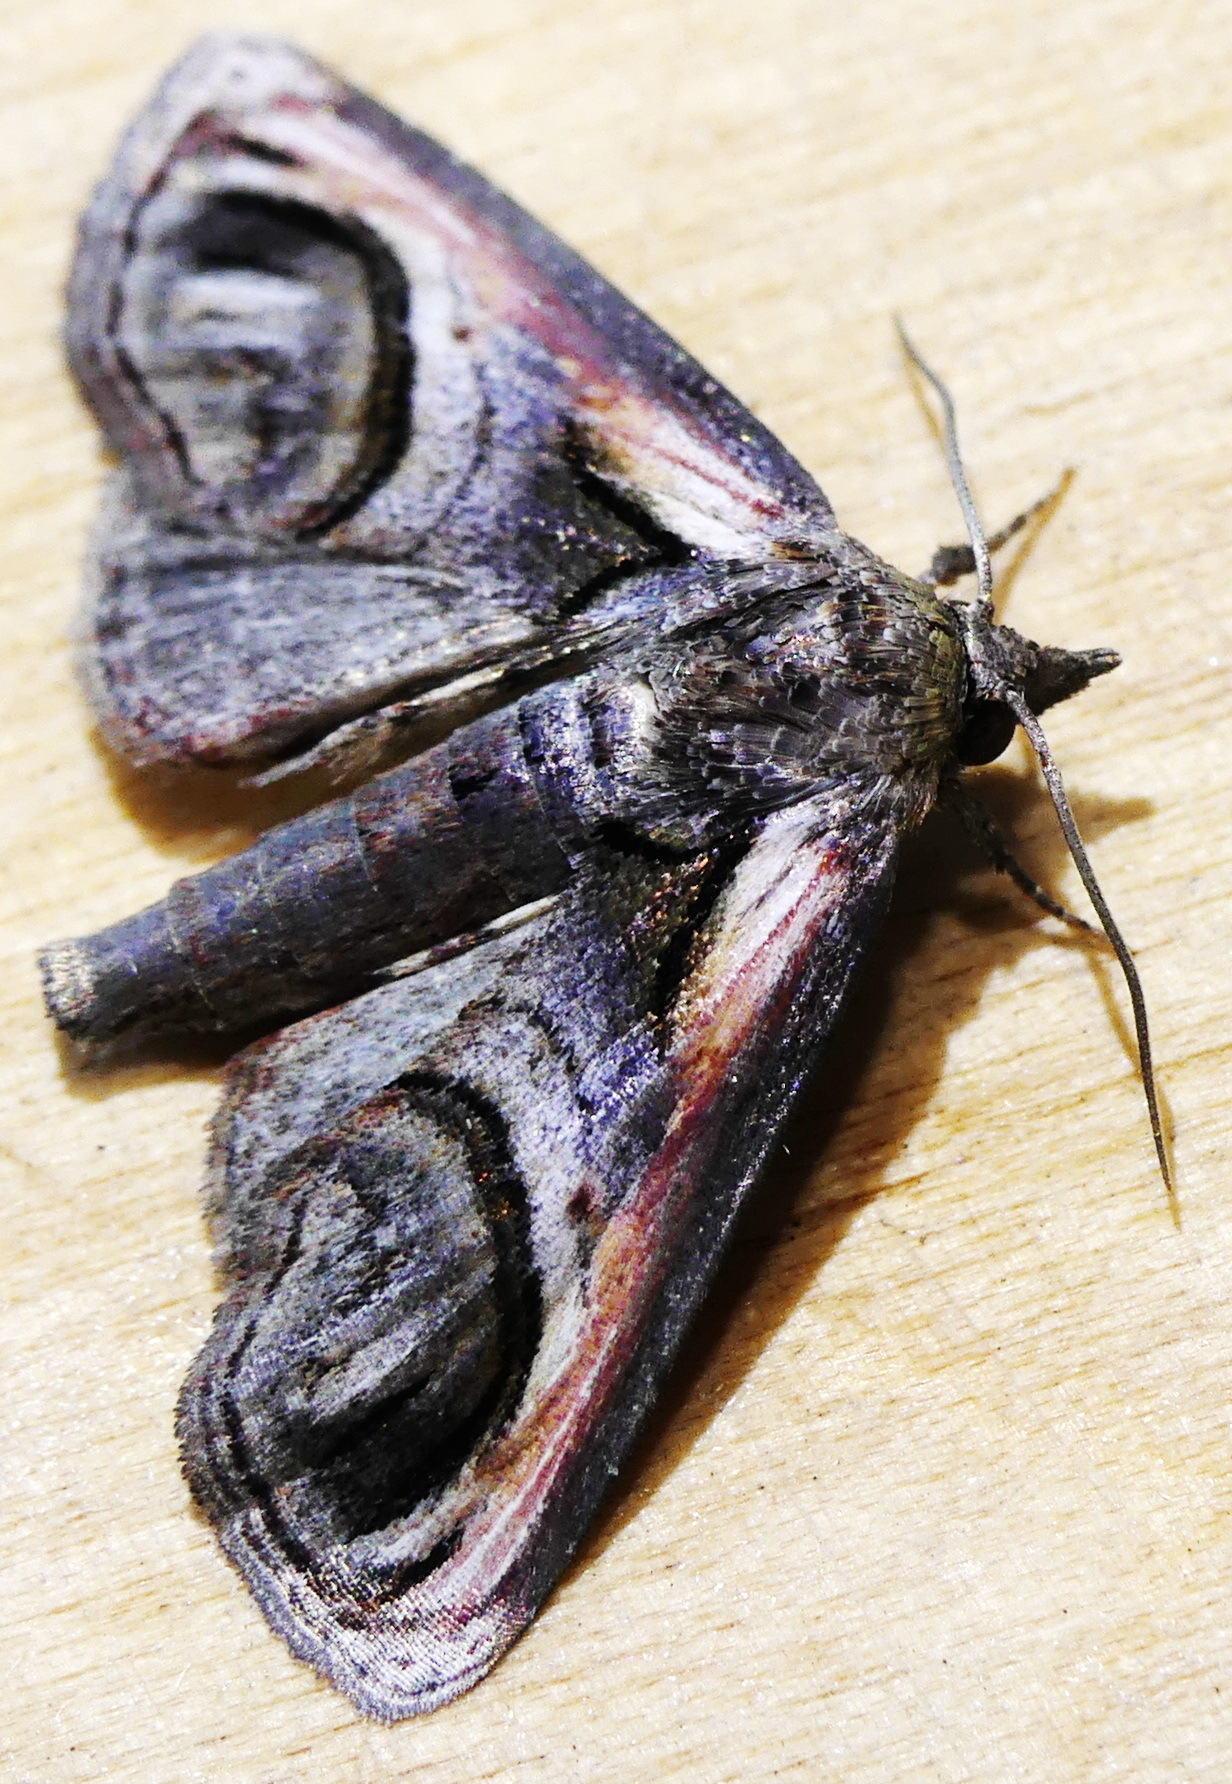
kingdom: Animalia
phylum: Arthropoda
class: Insecta
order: Lepidoptera
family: Euteliidae
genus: Paectes
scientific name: Paectes oculatrix
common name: Eyed paectes moth
